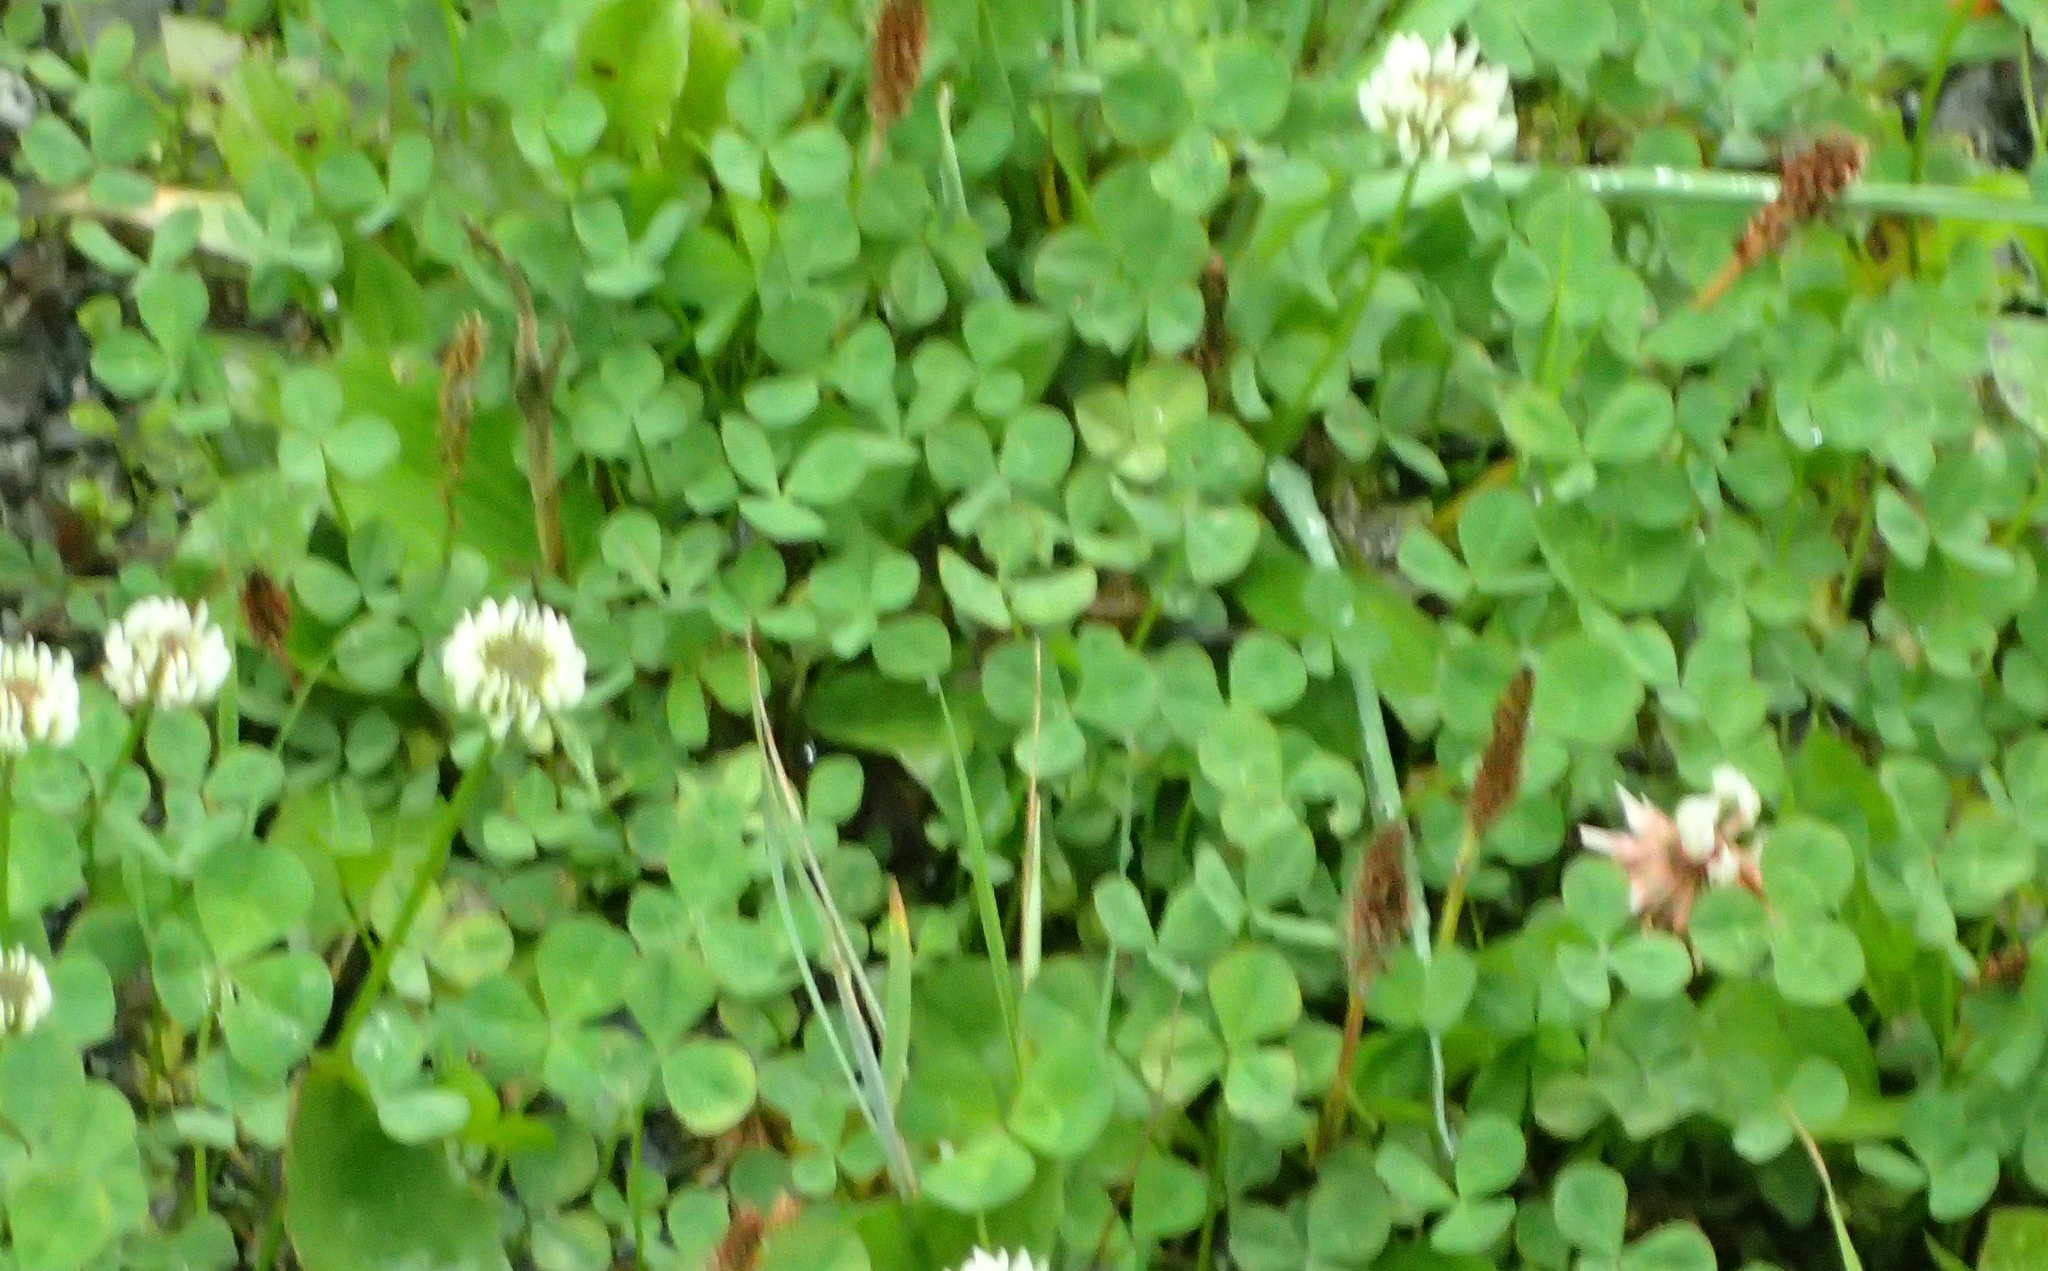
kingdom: Plantae
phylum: Tracheophyta
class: Magnoliopsida
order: Fabales
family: Fabaceae
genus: Trifolium
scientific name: Trifolium repens
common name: White clover
